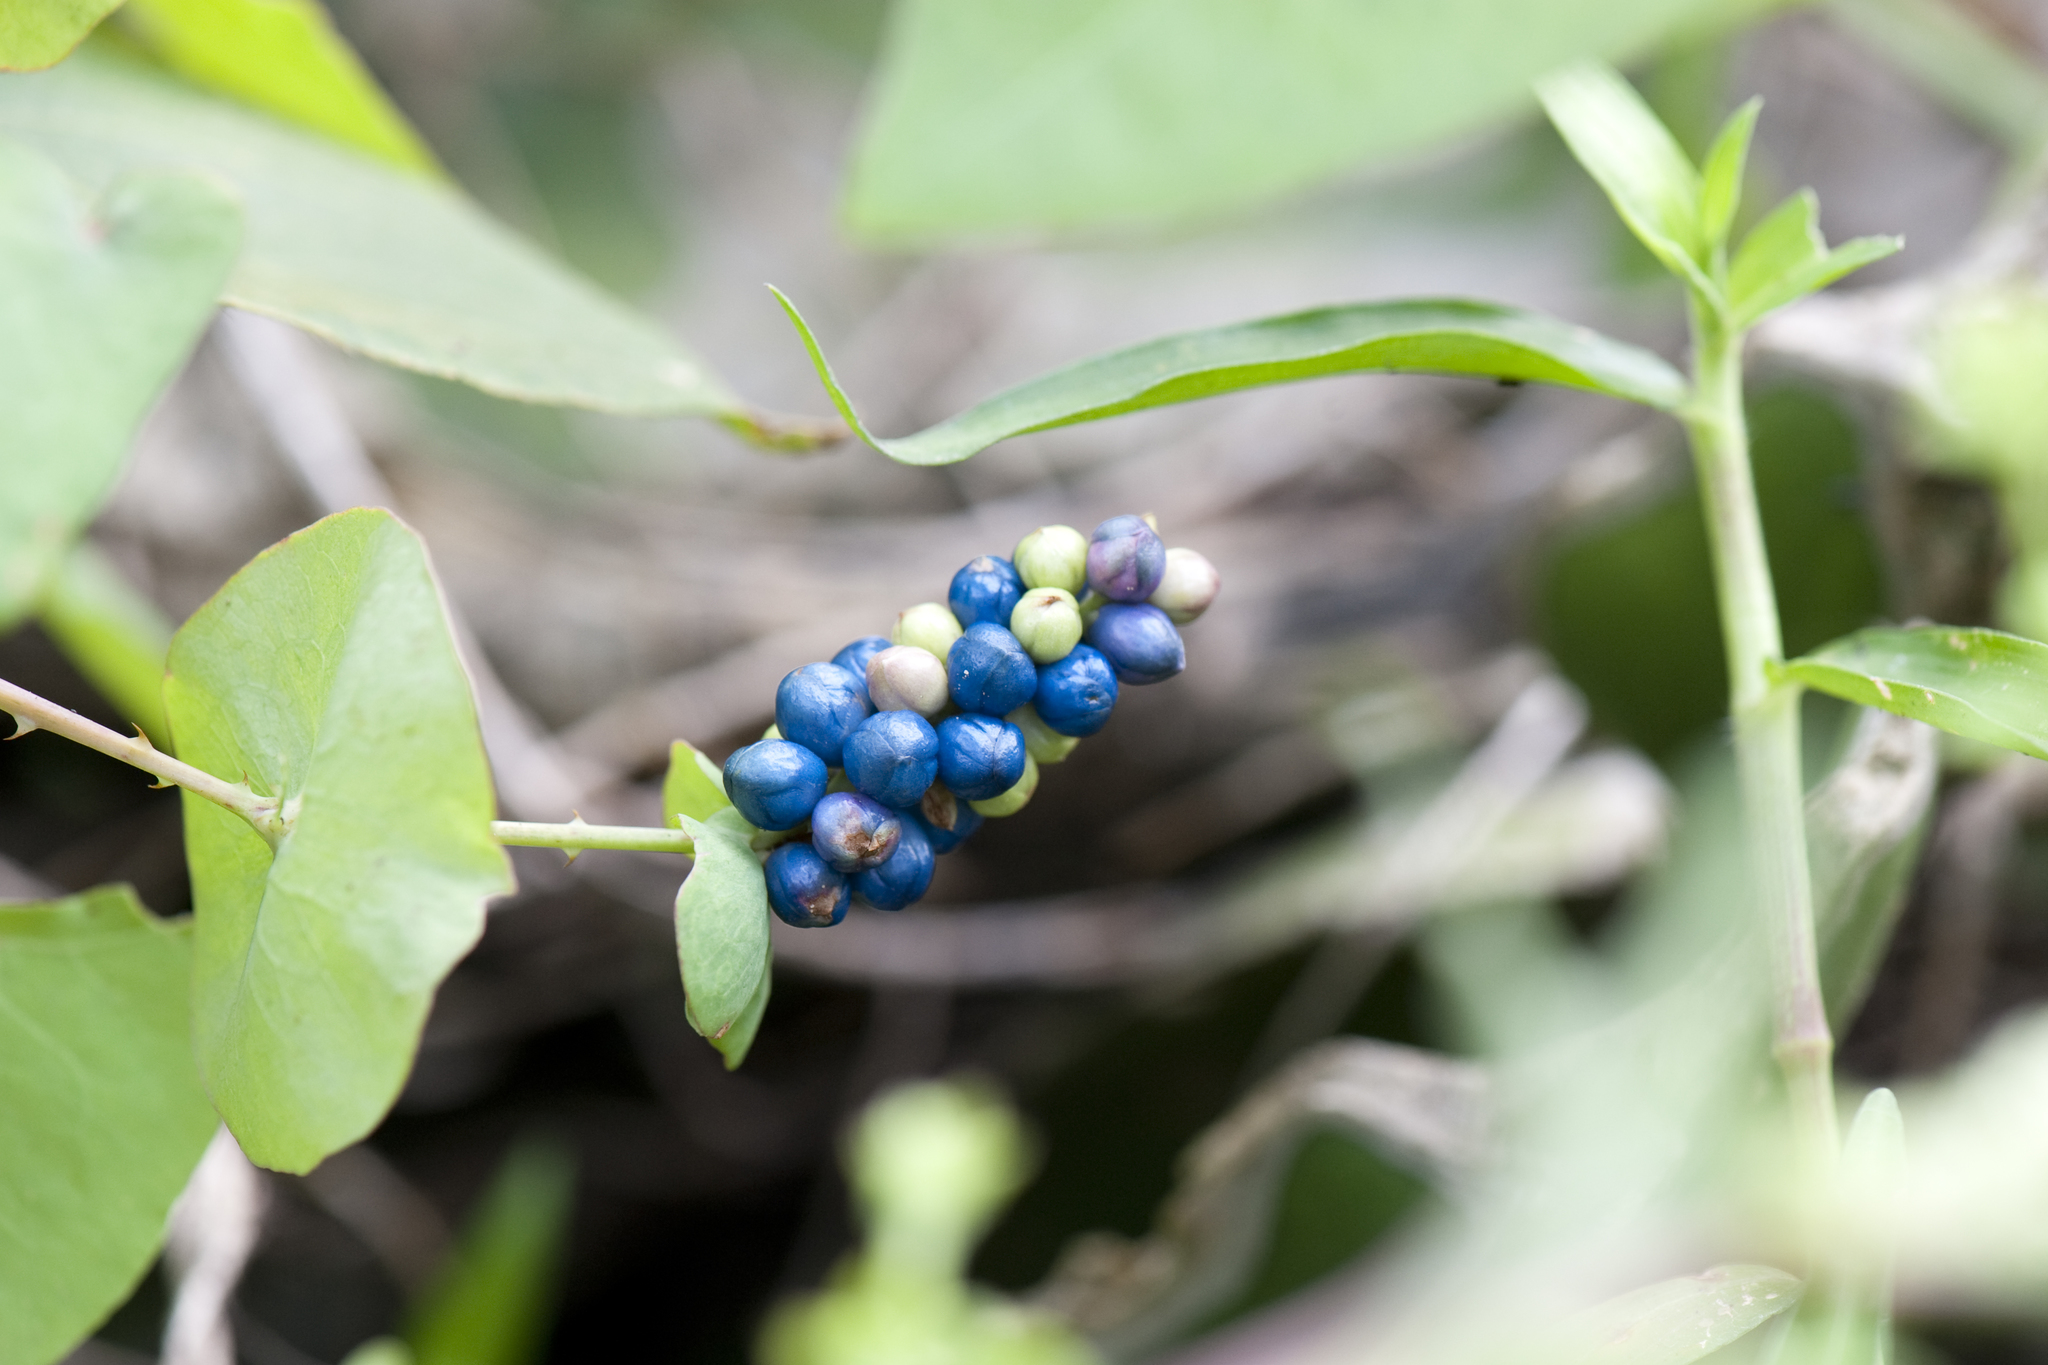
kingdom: Plantae
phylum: Tracheophyta
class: Magnoliopsida
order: Caryophyllales
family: Polygonaceae
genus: Persicaria
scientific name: Persicaria perfoliata
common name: Asiatic tearthumb
